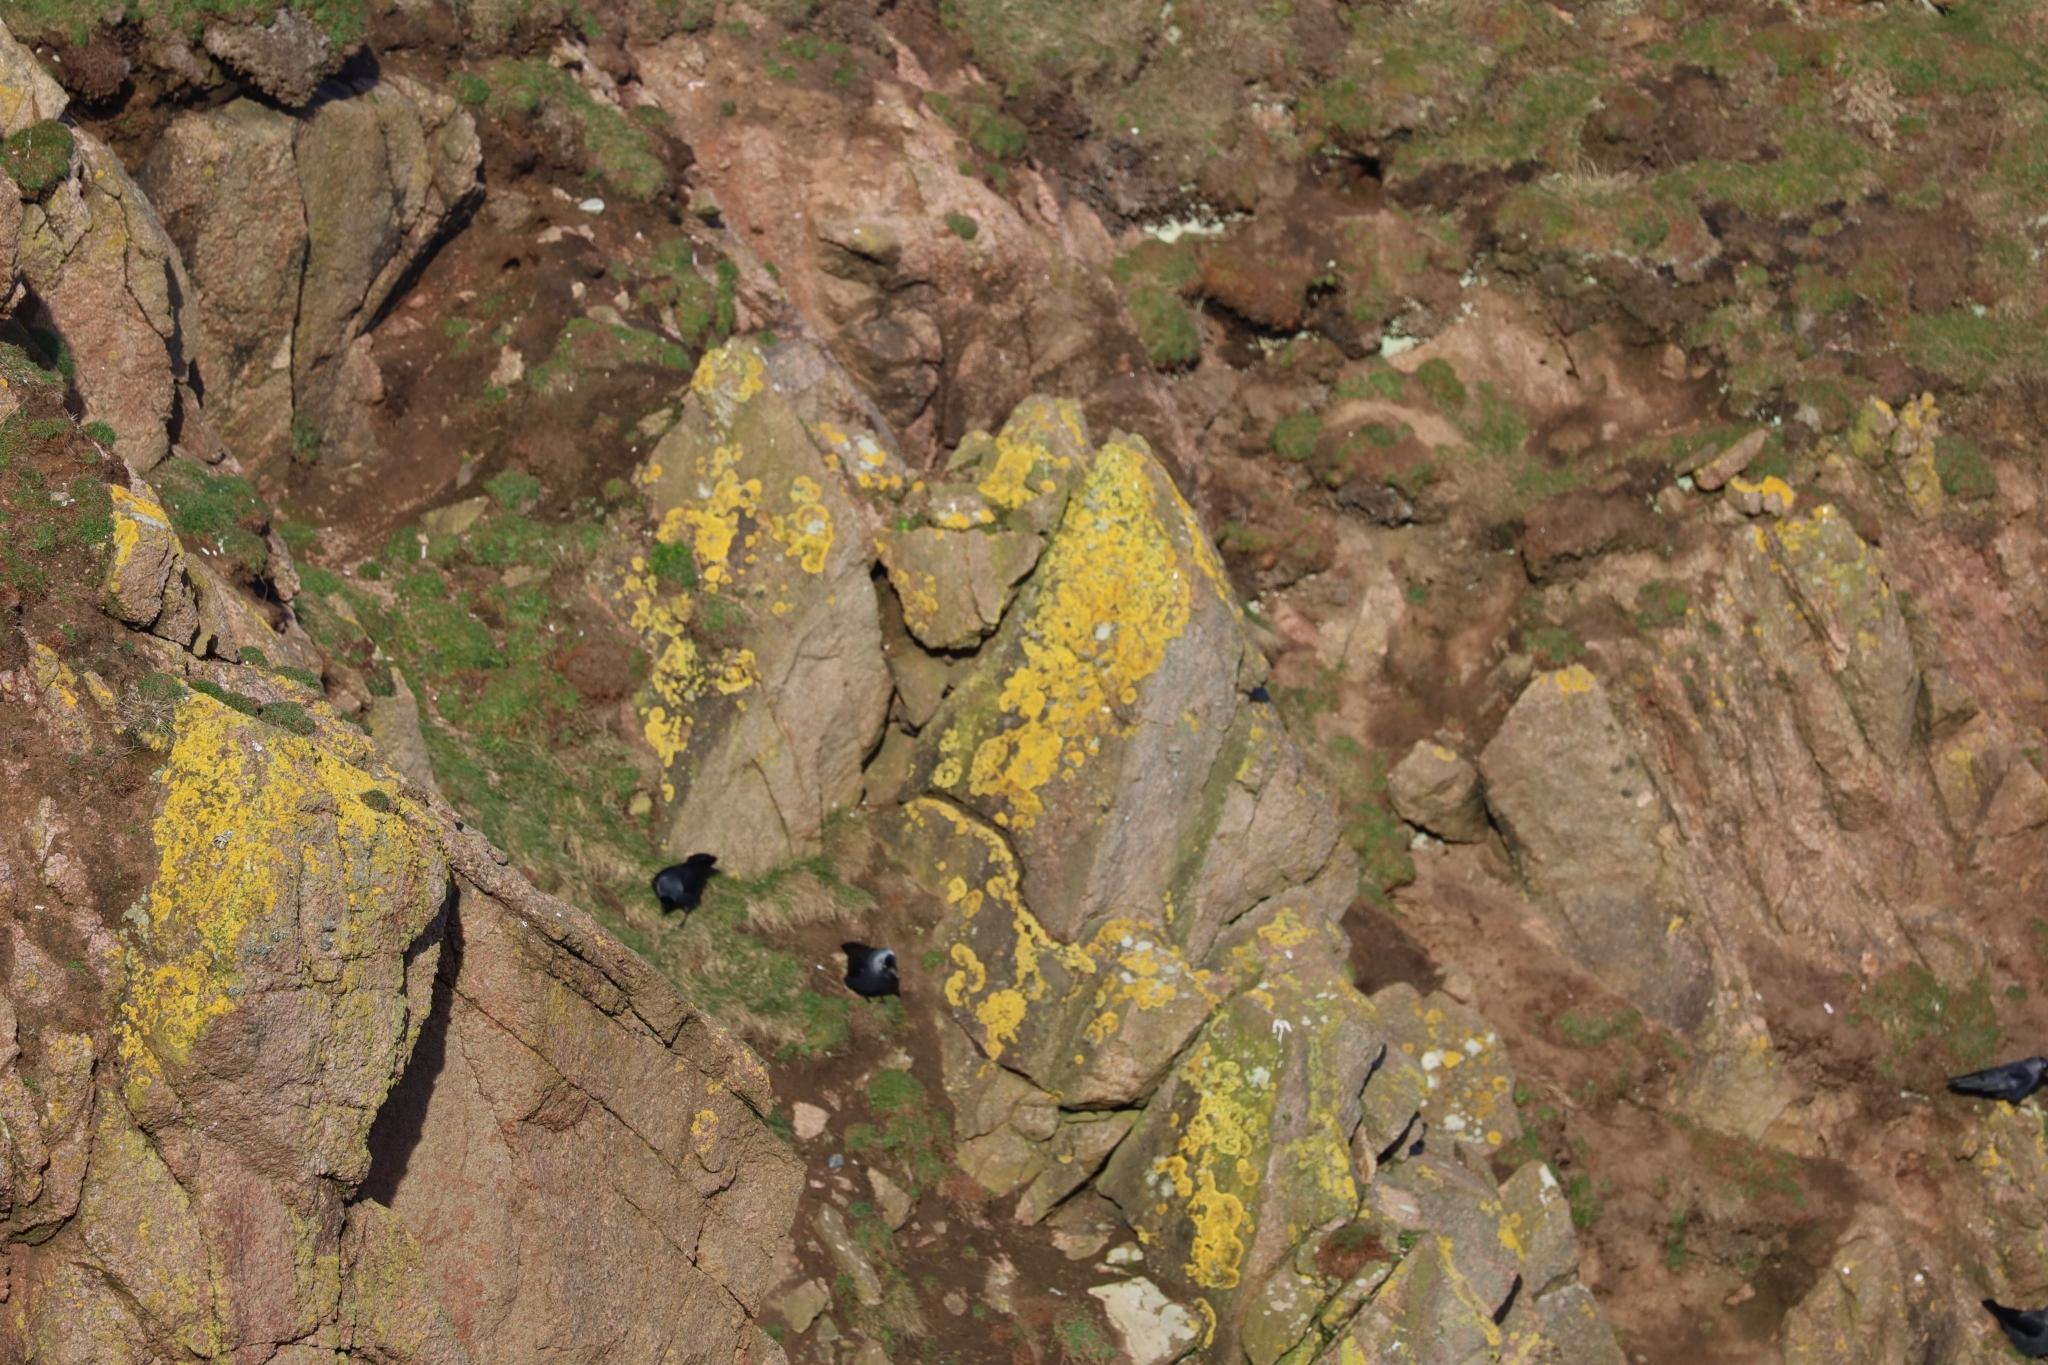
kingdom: Animalia
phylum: Chordata
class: Aves
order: Passeriformes
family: Corvidae
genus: Coloeus
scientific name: Coloeus monedula
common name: Western jackdaw
